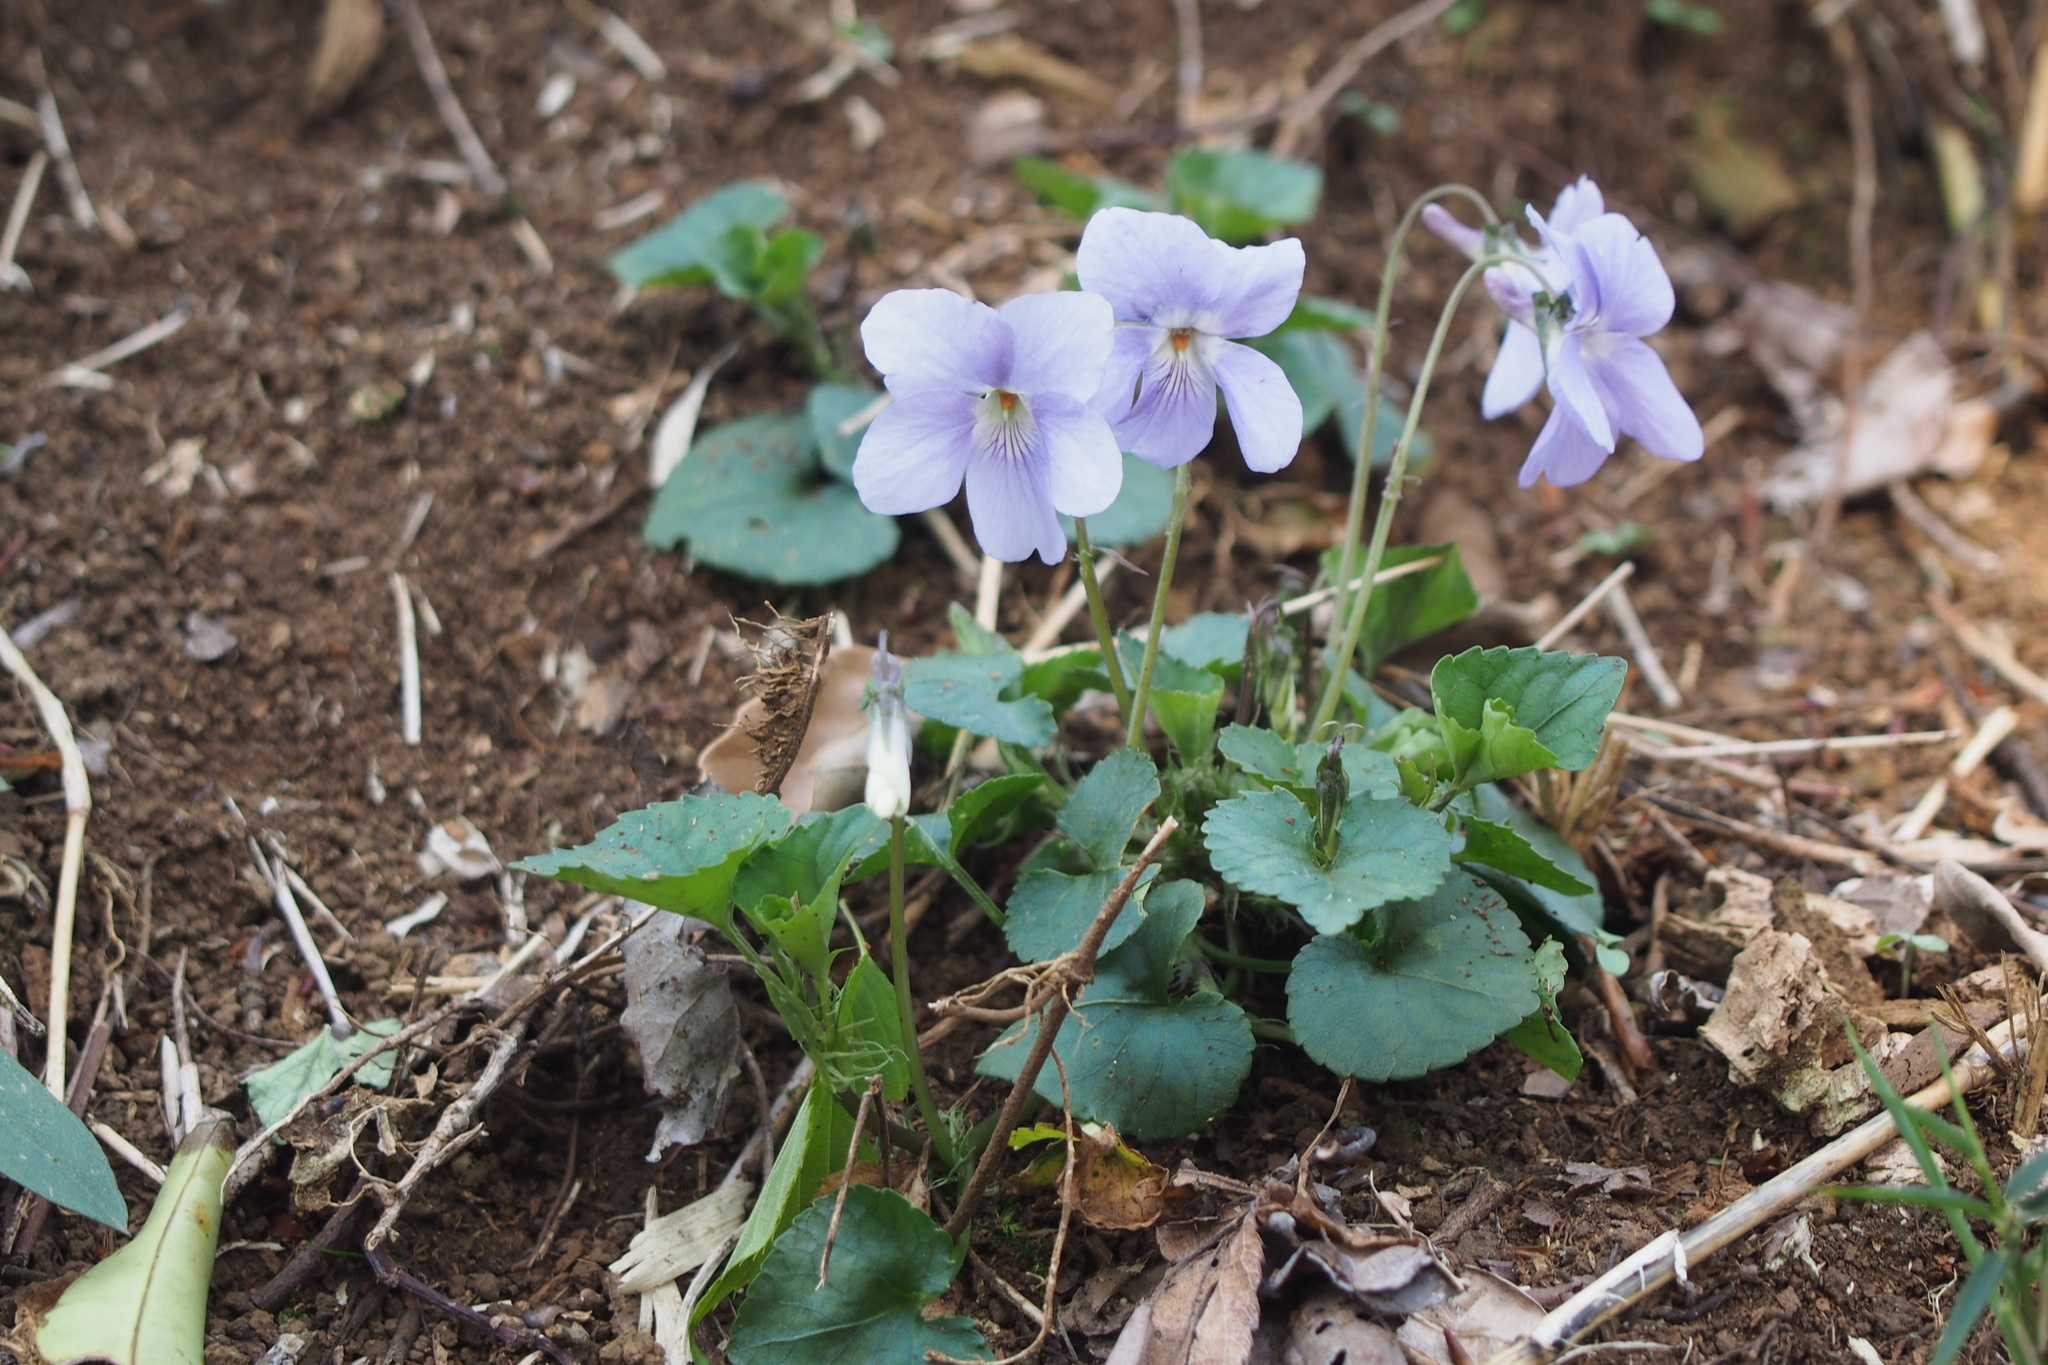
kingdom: Plantae
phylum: Tracheophyta
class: Magnoliopsida
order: Malpighiales
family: Violaceae
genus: Viola
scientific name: Viola grypoceras
